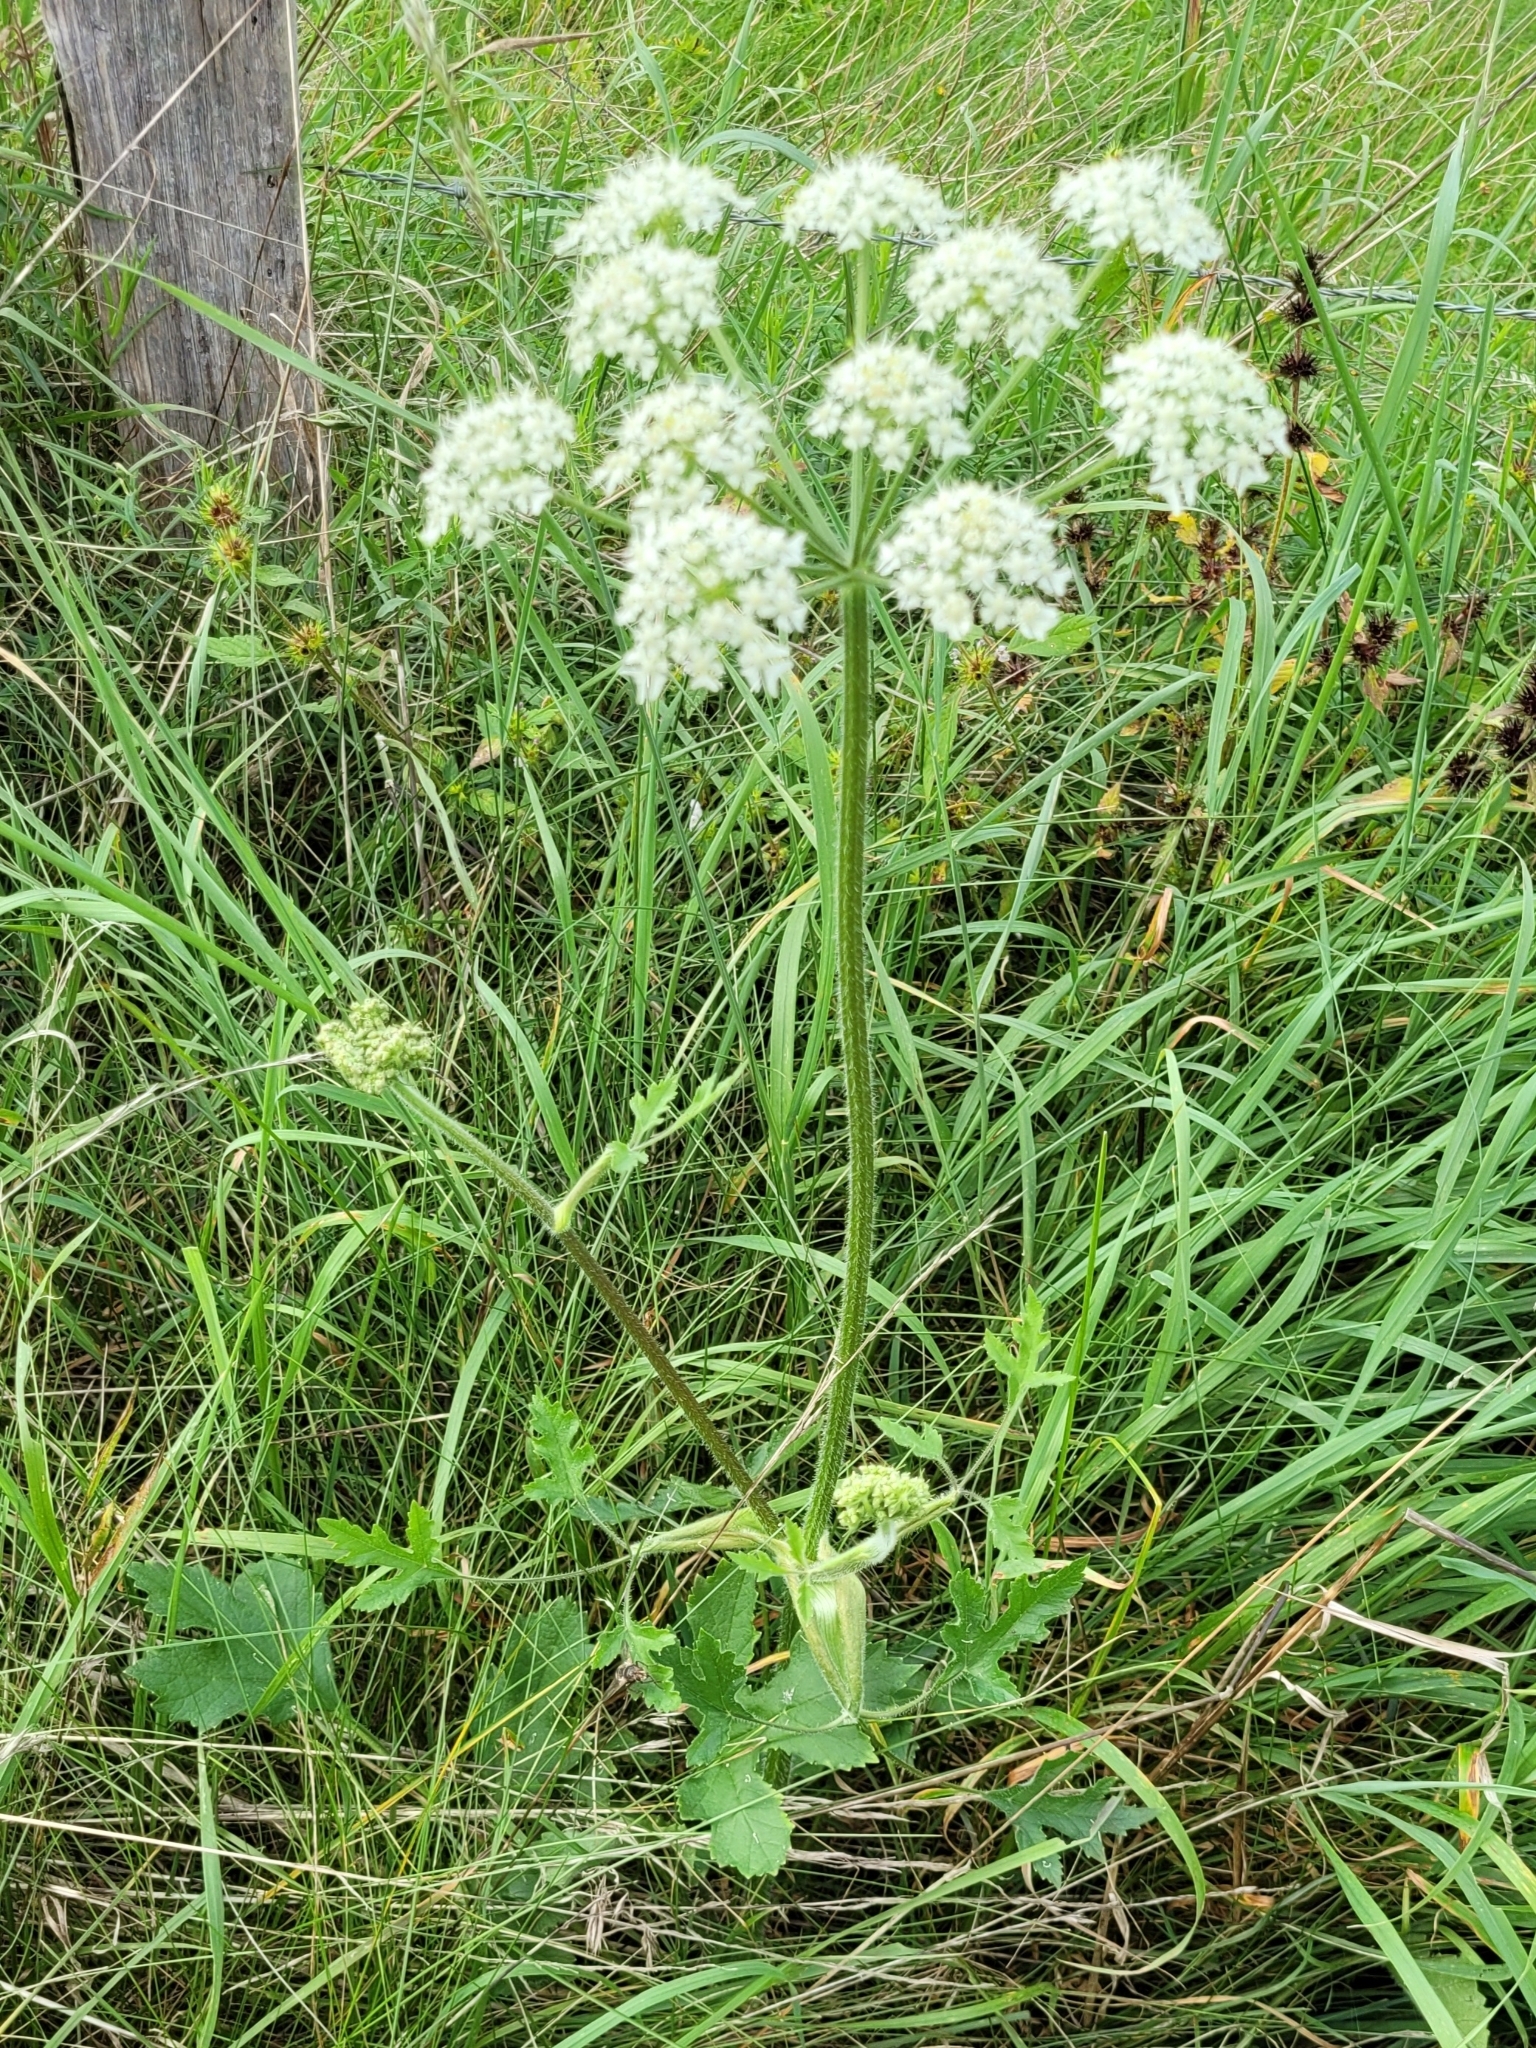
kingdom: Plantae
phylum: Tracheophyta
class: Magnoliopsida
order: Apiales
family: Apiaceae
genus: Heracleum
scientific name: Heracleum sphondylium
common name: Hogweed
